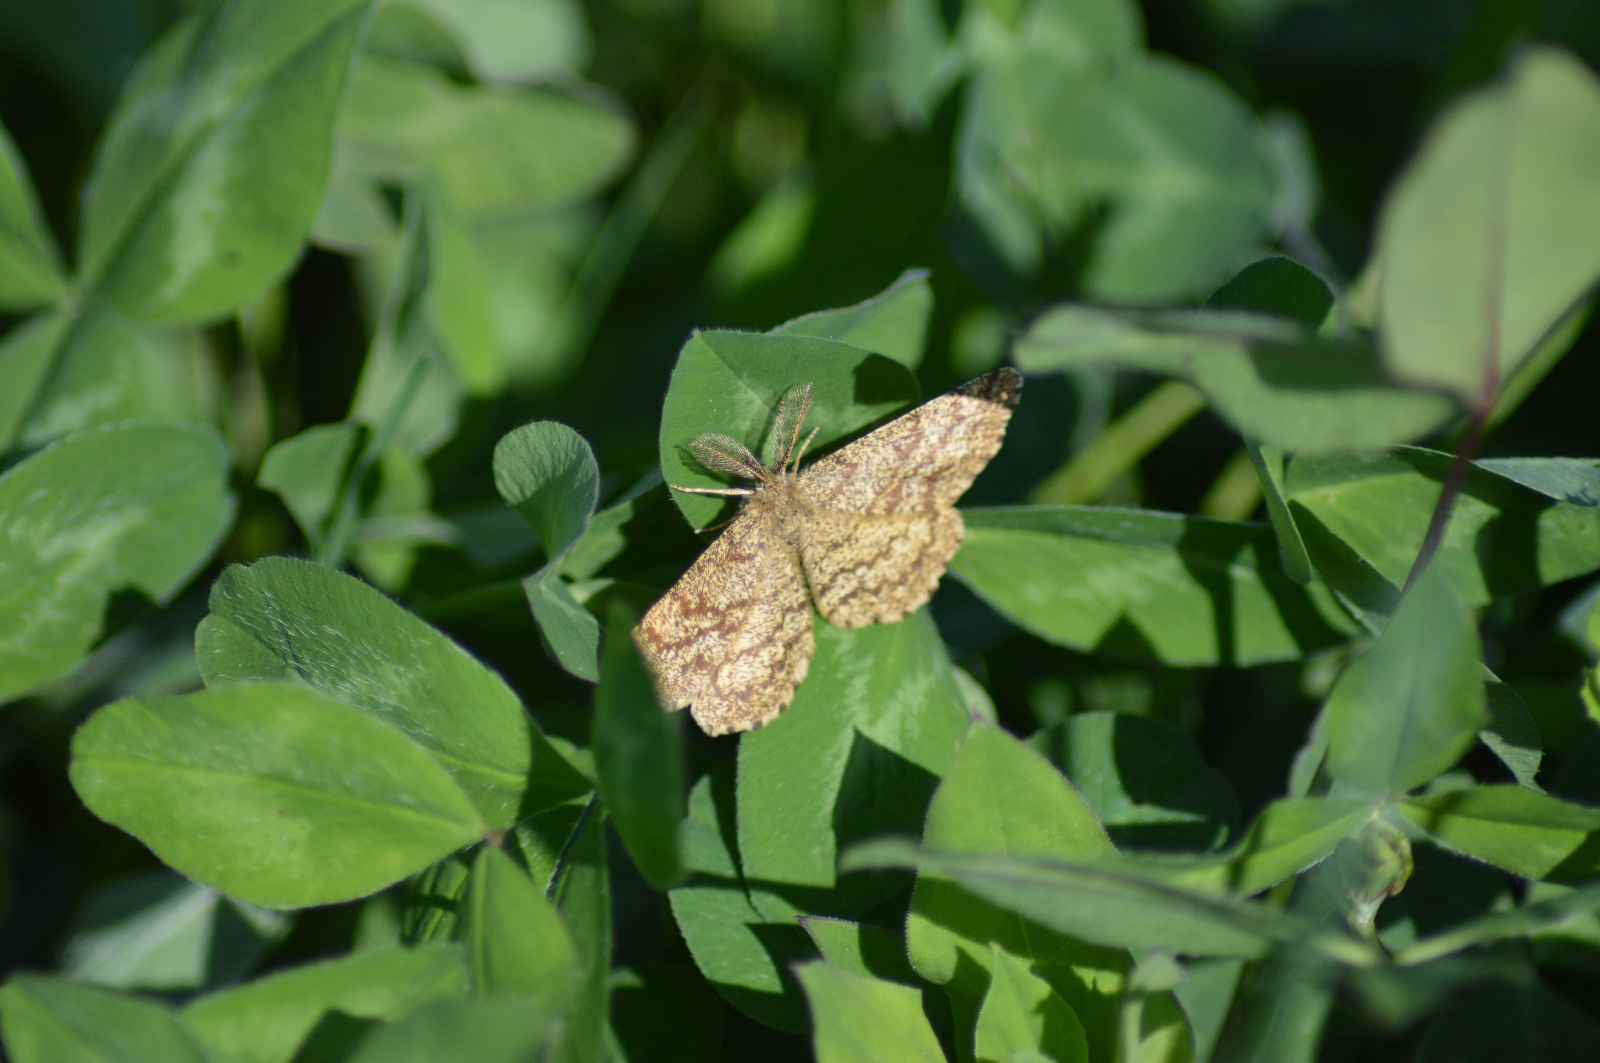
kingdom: Animalia
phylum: Arthropoda
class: Insecta
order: Lepidoptera
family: Geometridae
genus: Ematurga
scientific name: Ematurga atomaria
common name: Common heath
